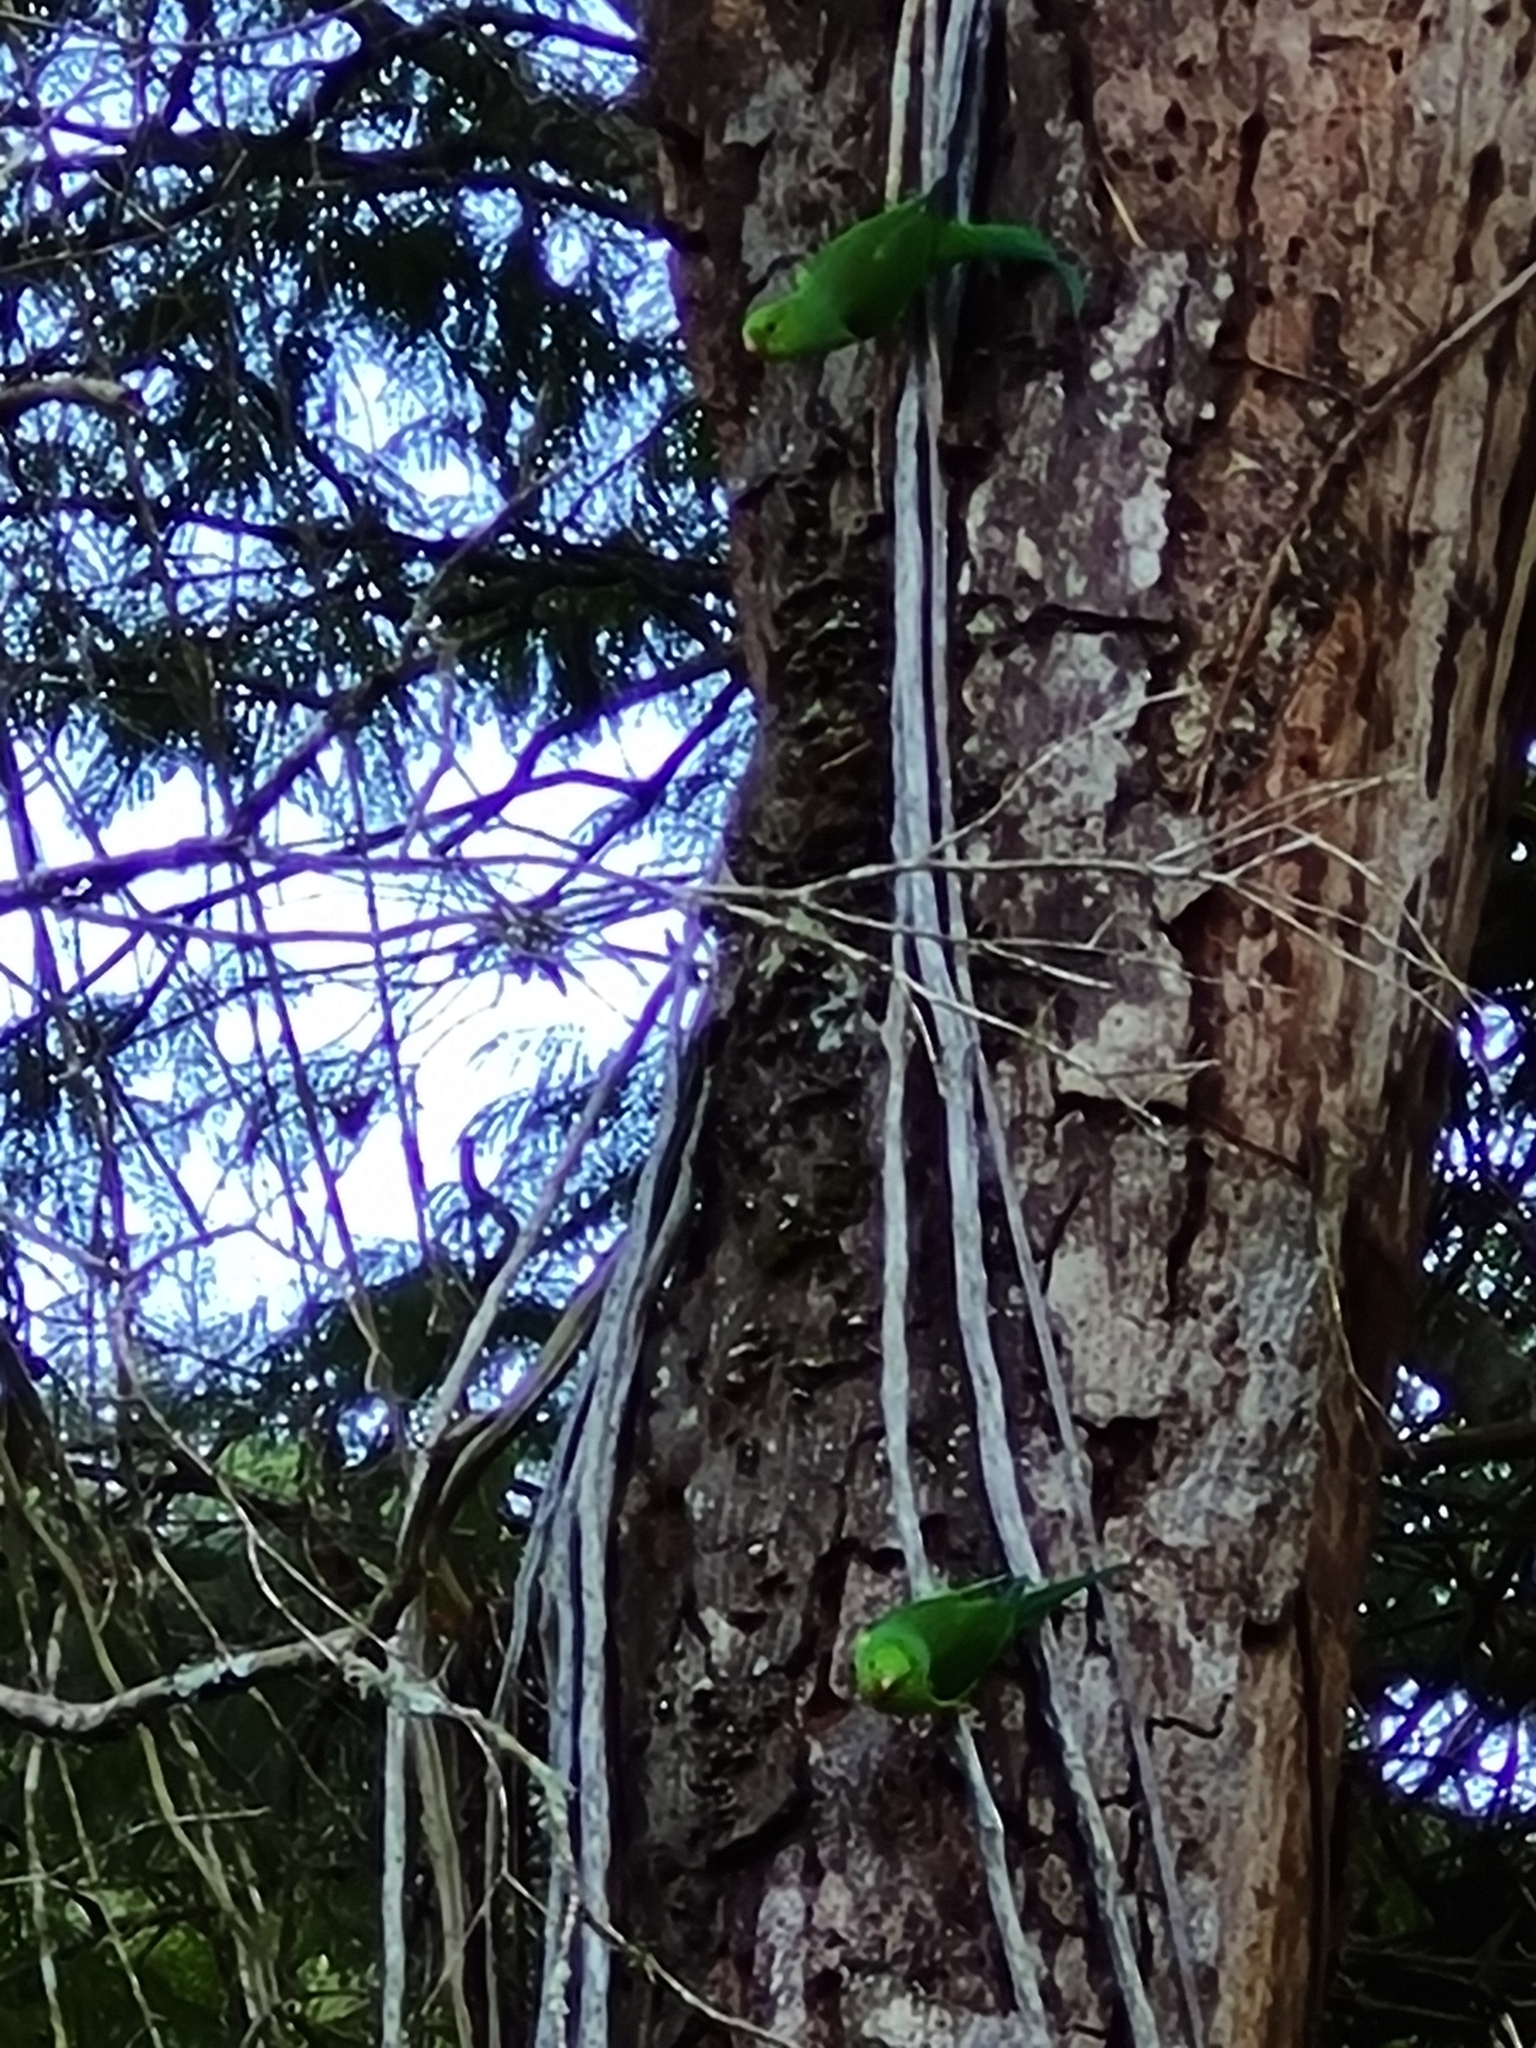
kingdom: Animalia
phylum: Chordata
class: Aves
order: Psittaciformes
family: Psittacidae
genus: Brotogeris
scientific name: Brotogeris tirica
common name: Plain parakeet
